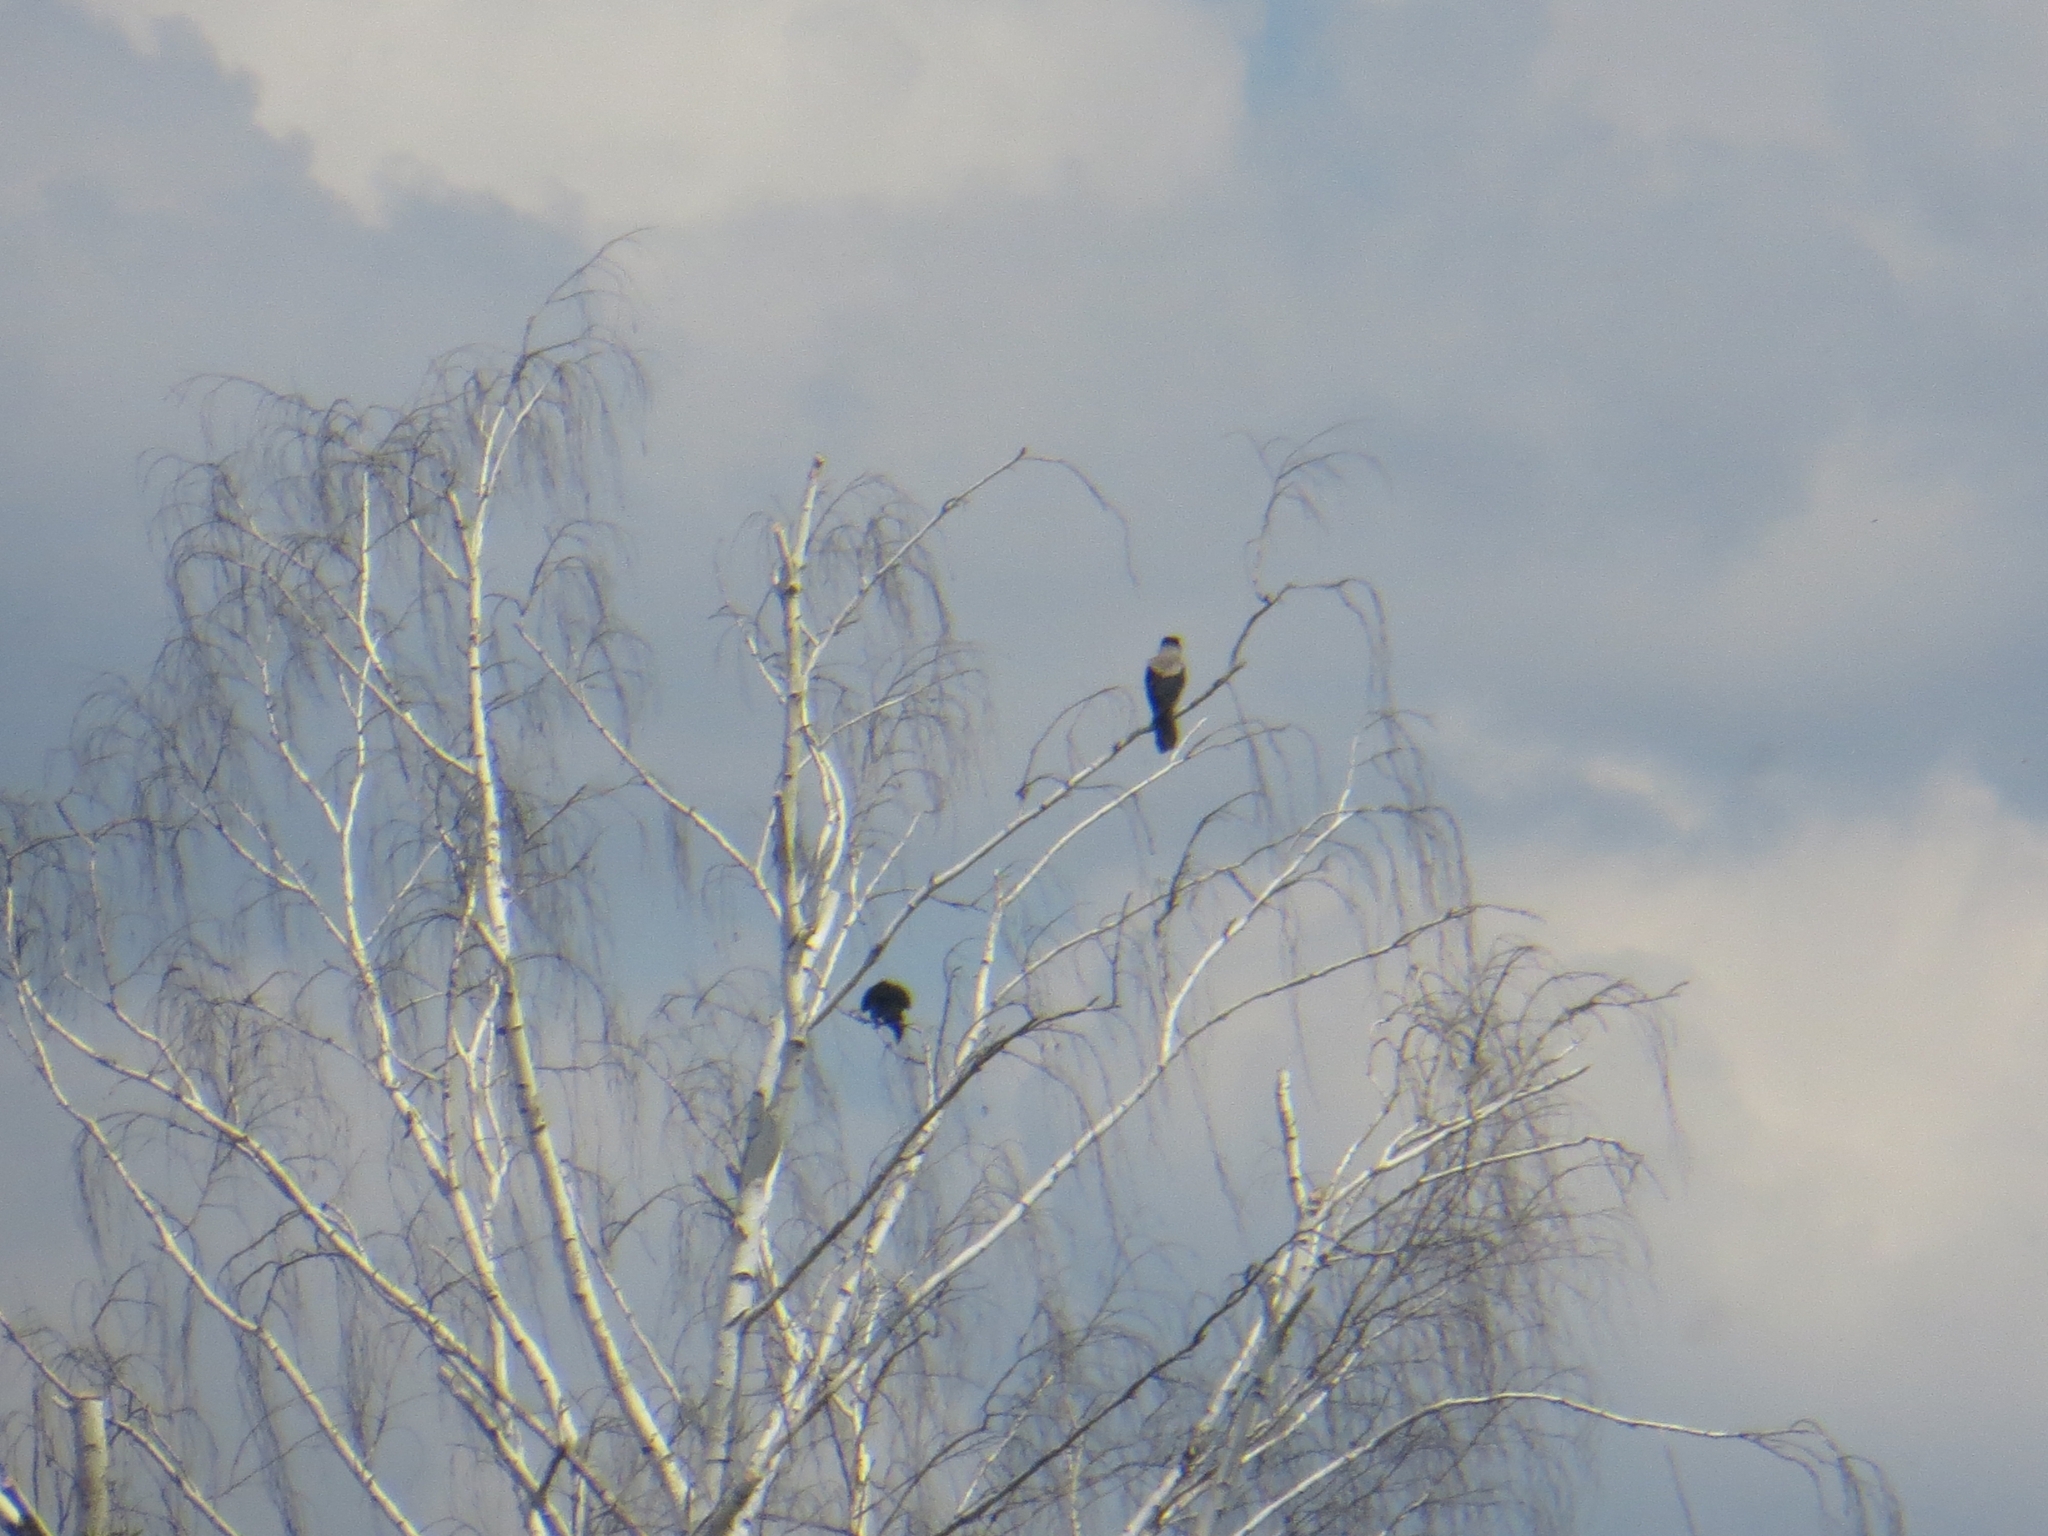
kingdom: Animalia
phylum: Chordata
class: Aves
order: Passeriformes
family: Corvidae
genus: Corvus
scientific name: Corvus cornix
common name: Hooded crow
